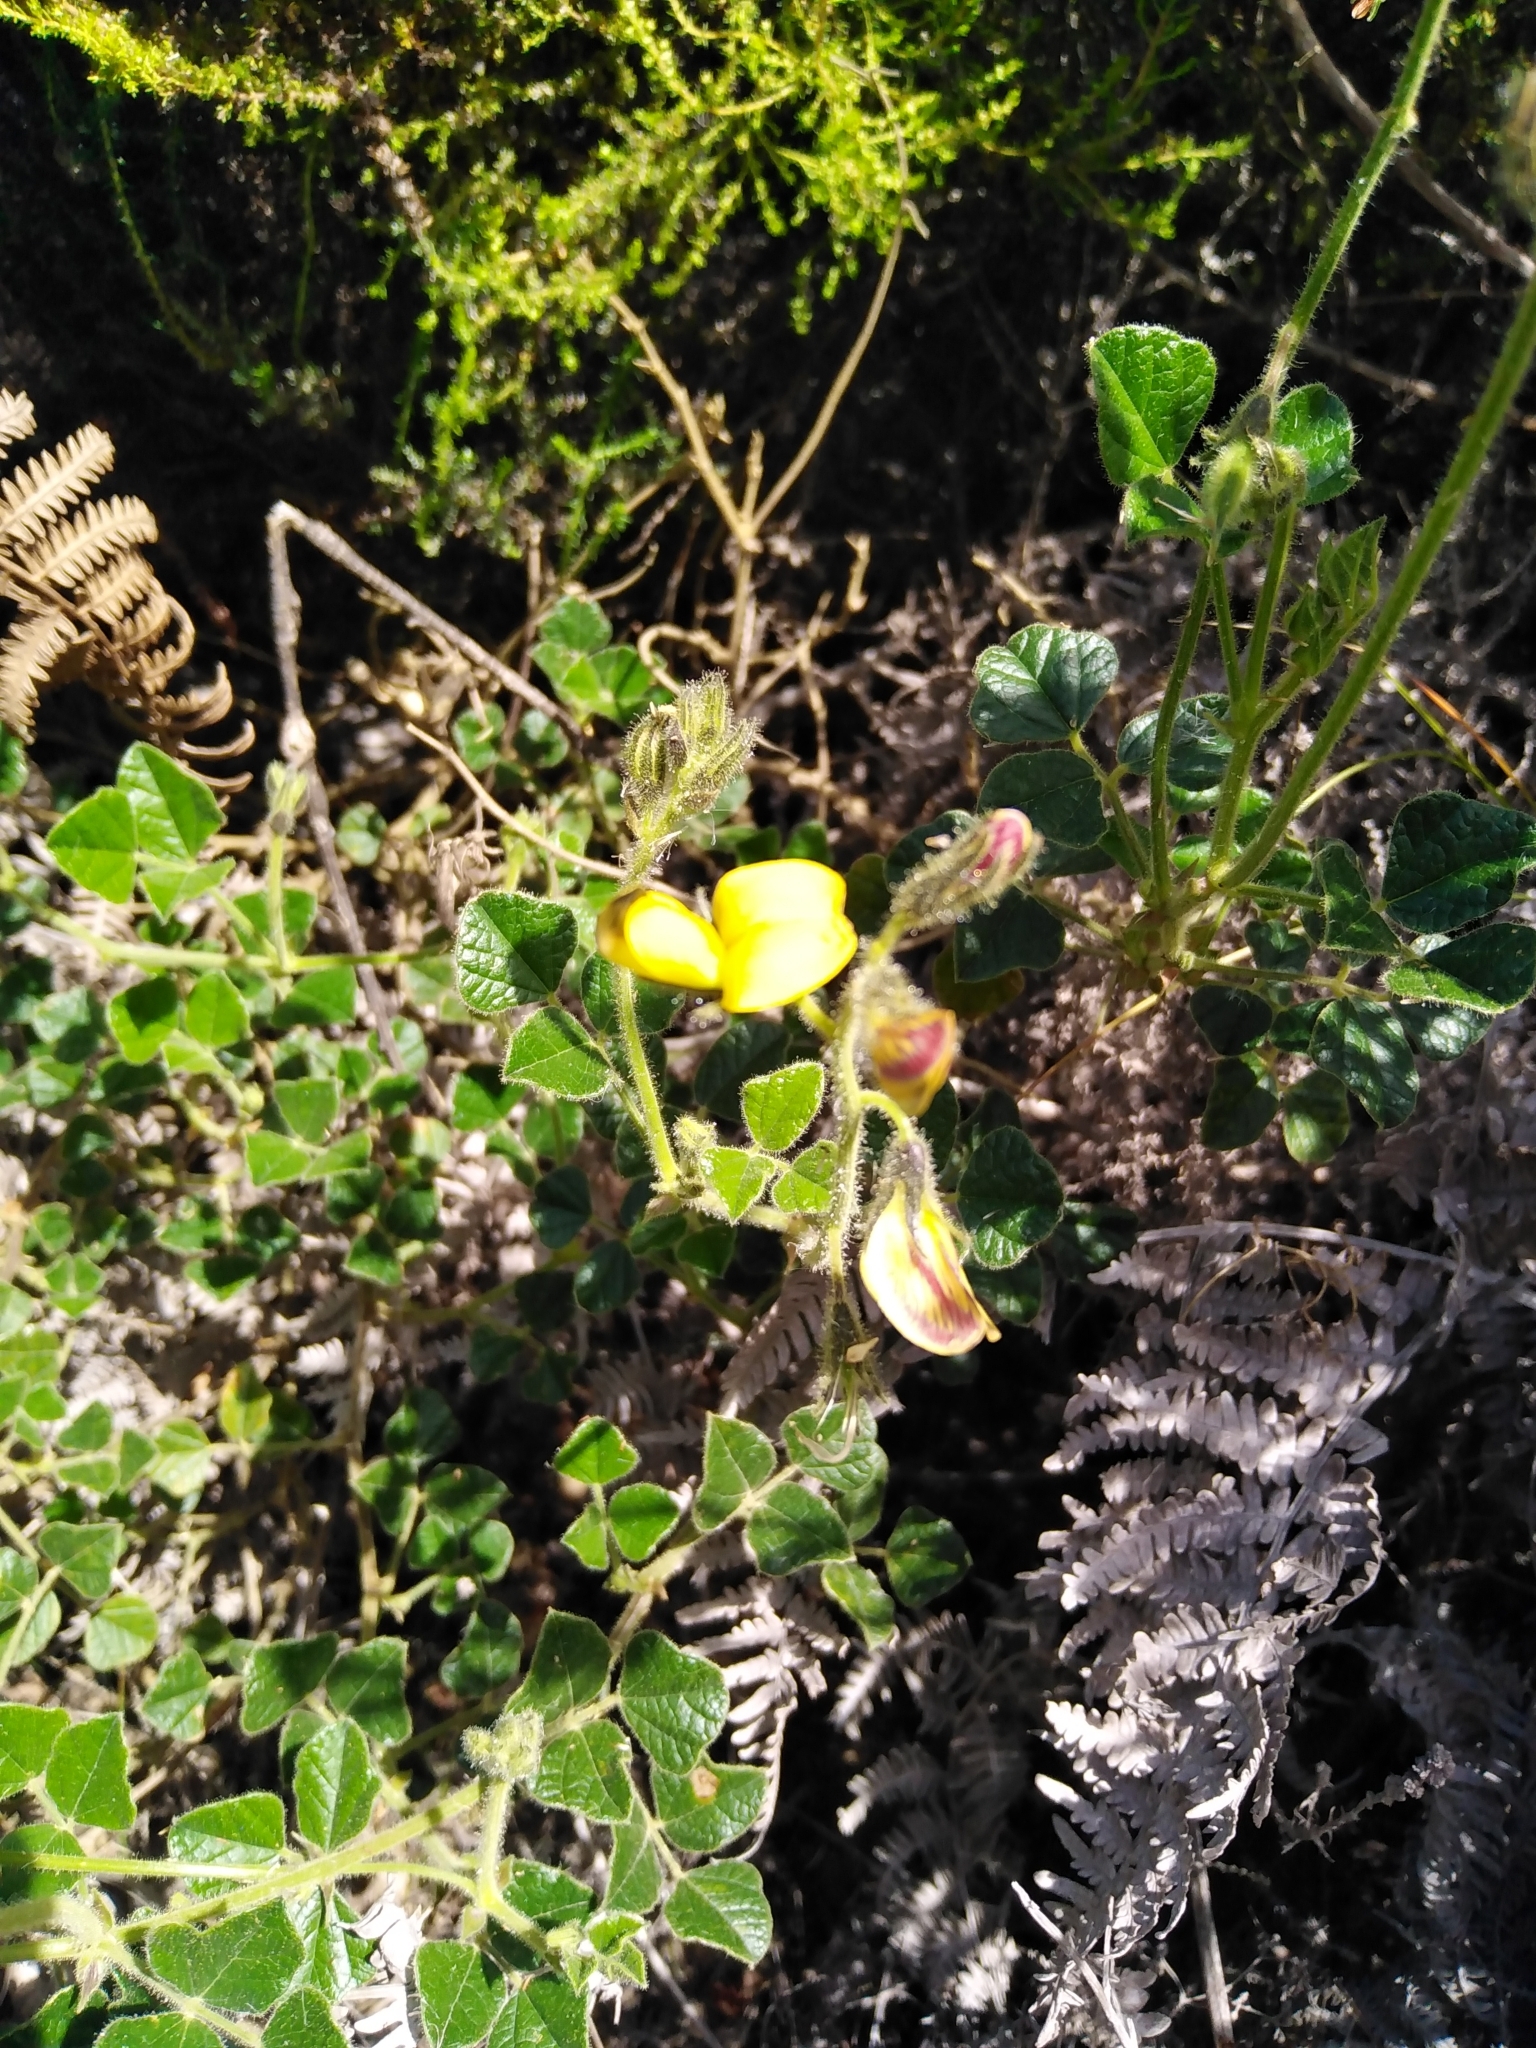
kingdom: Plantae
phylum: Tracheophyta
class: Magnoliopsida
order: Fabales
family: Fabaceae
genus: Bolusafra
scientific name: Bolusafra bituminosa
